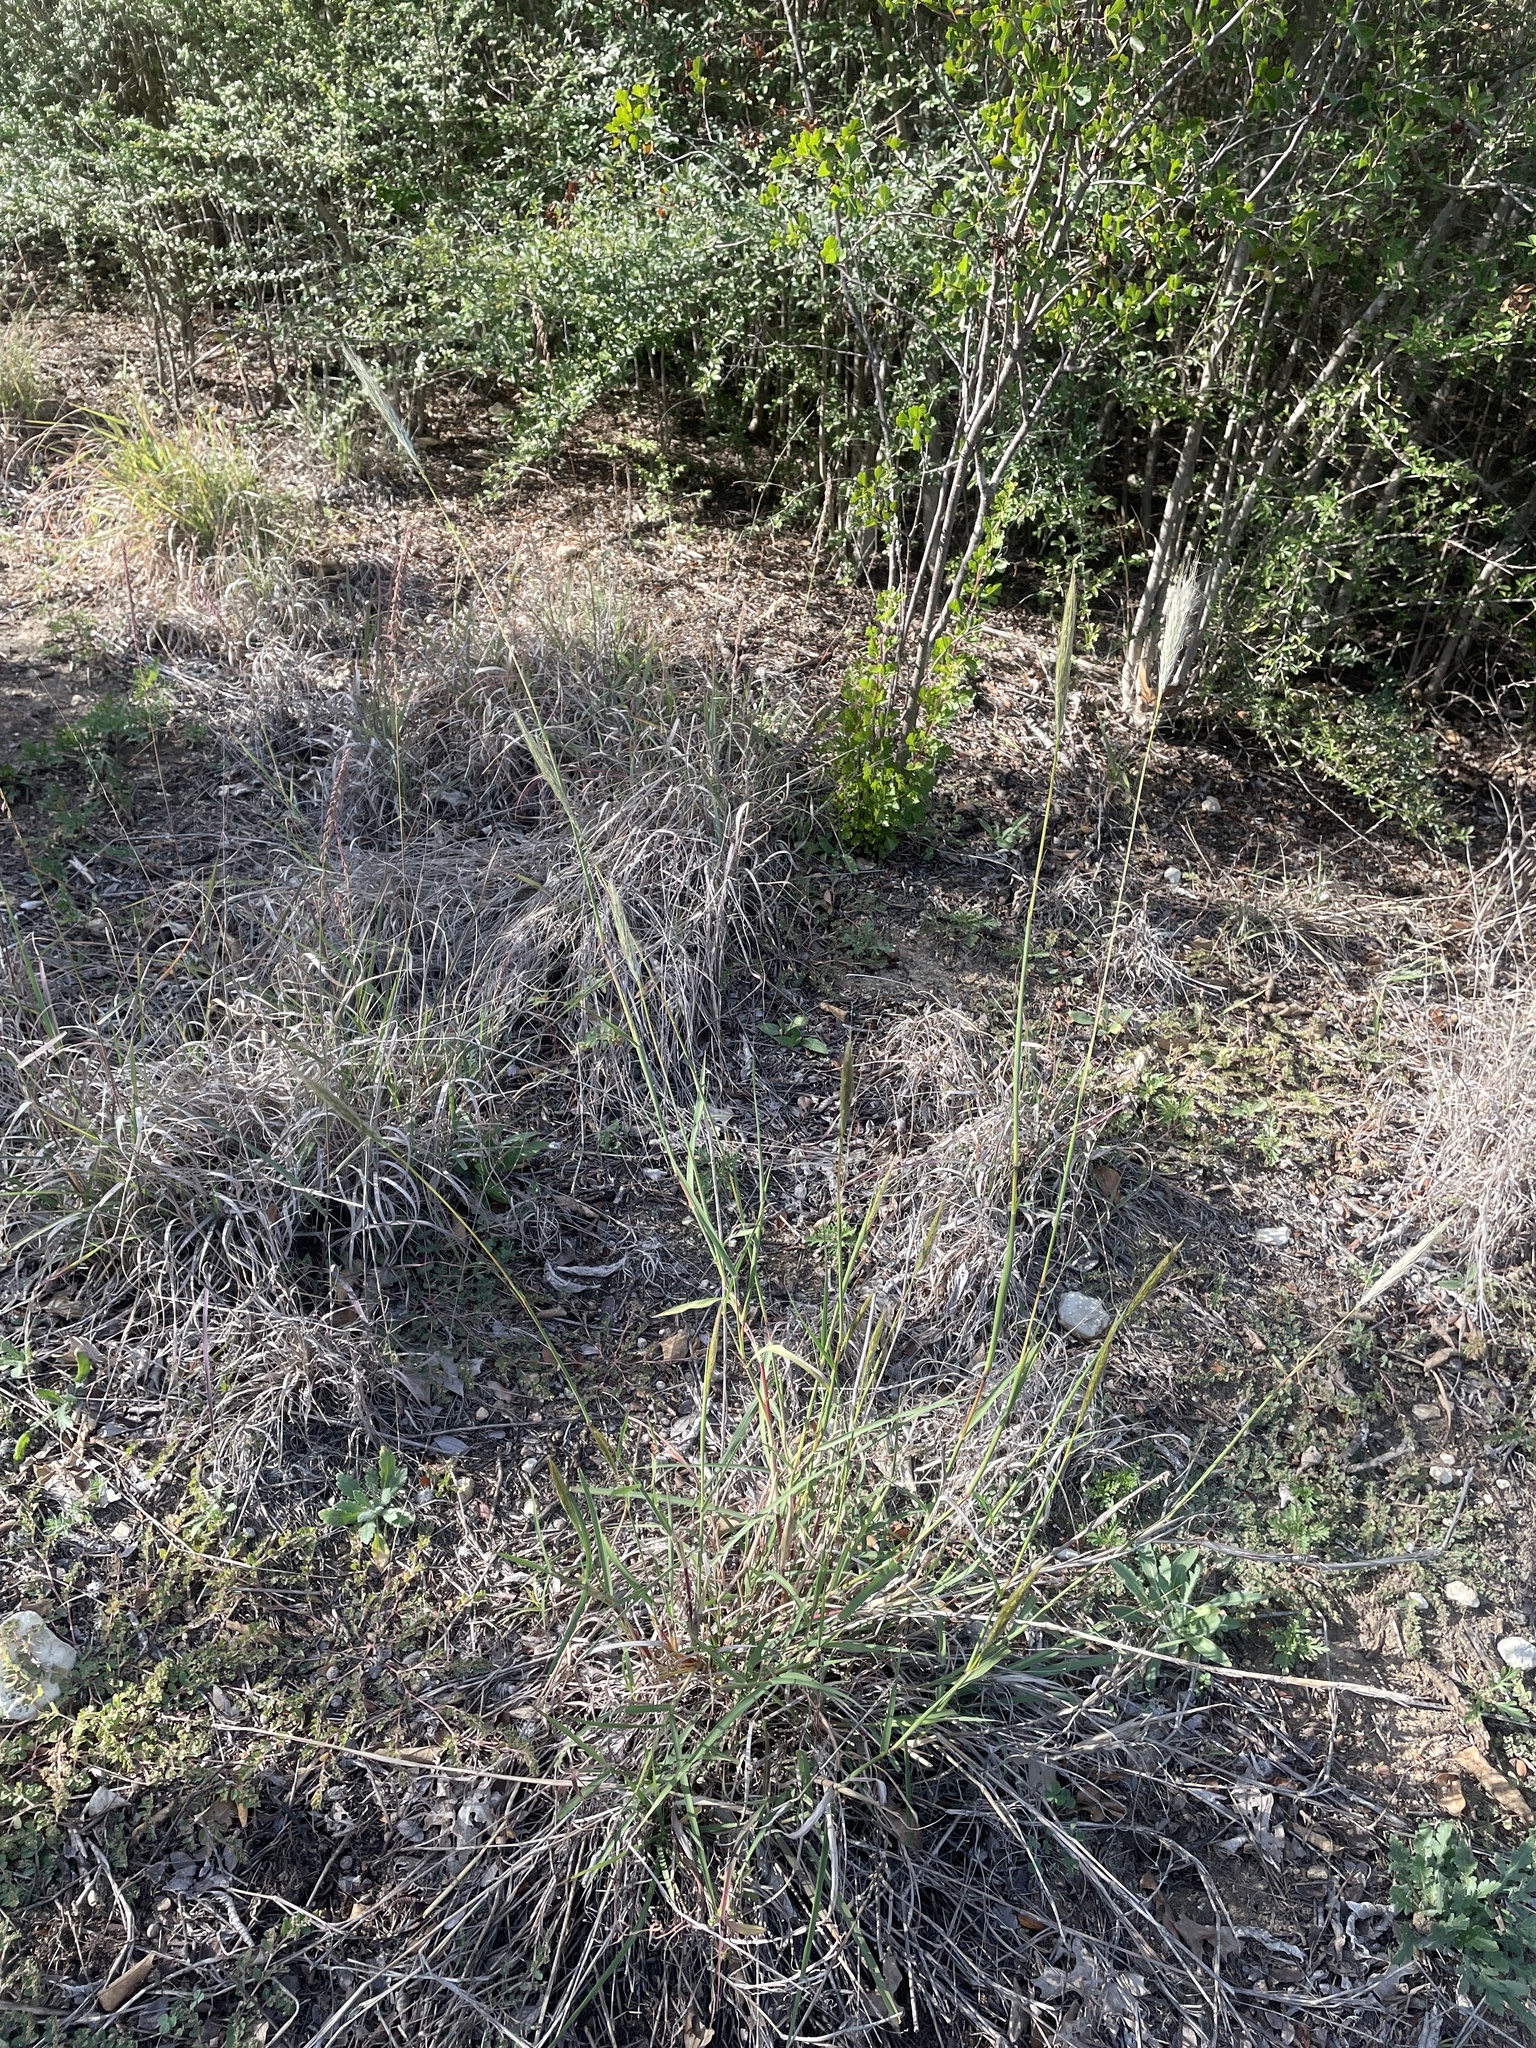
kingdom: Plantae
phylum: Tracheophyta
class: Liliopsida
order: Poales
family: Poaceae
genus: Bothriochloa
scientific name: Bothriochloa barbinodis
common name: Cane bluestem
